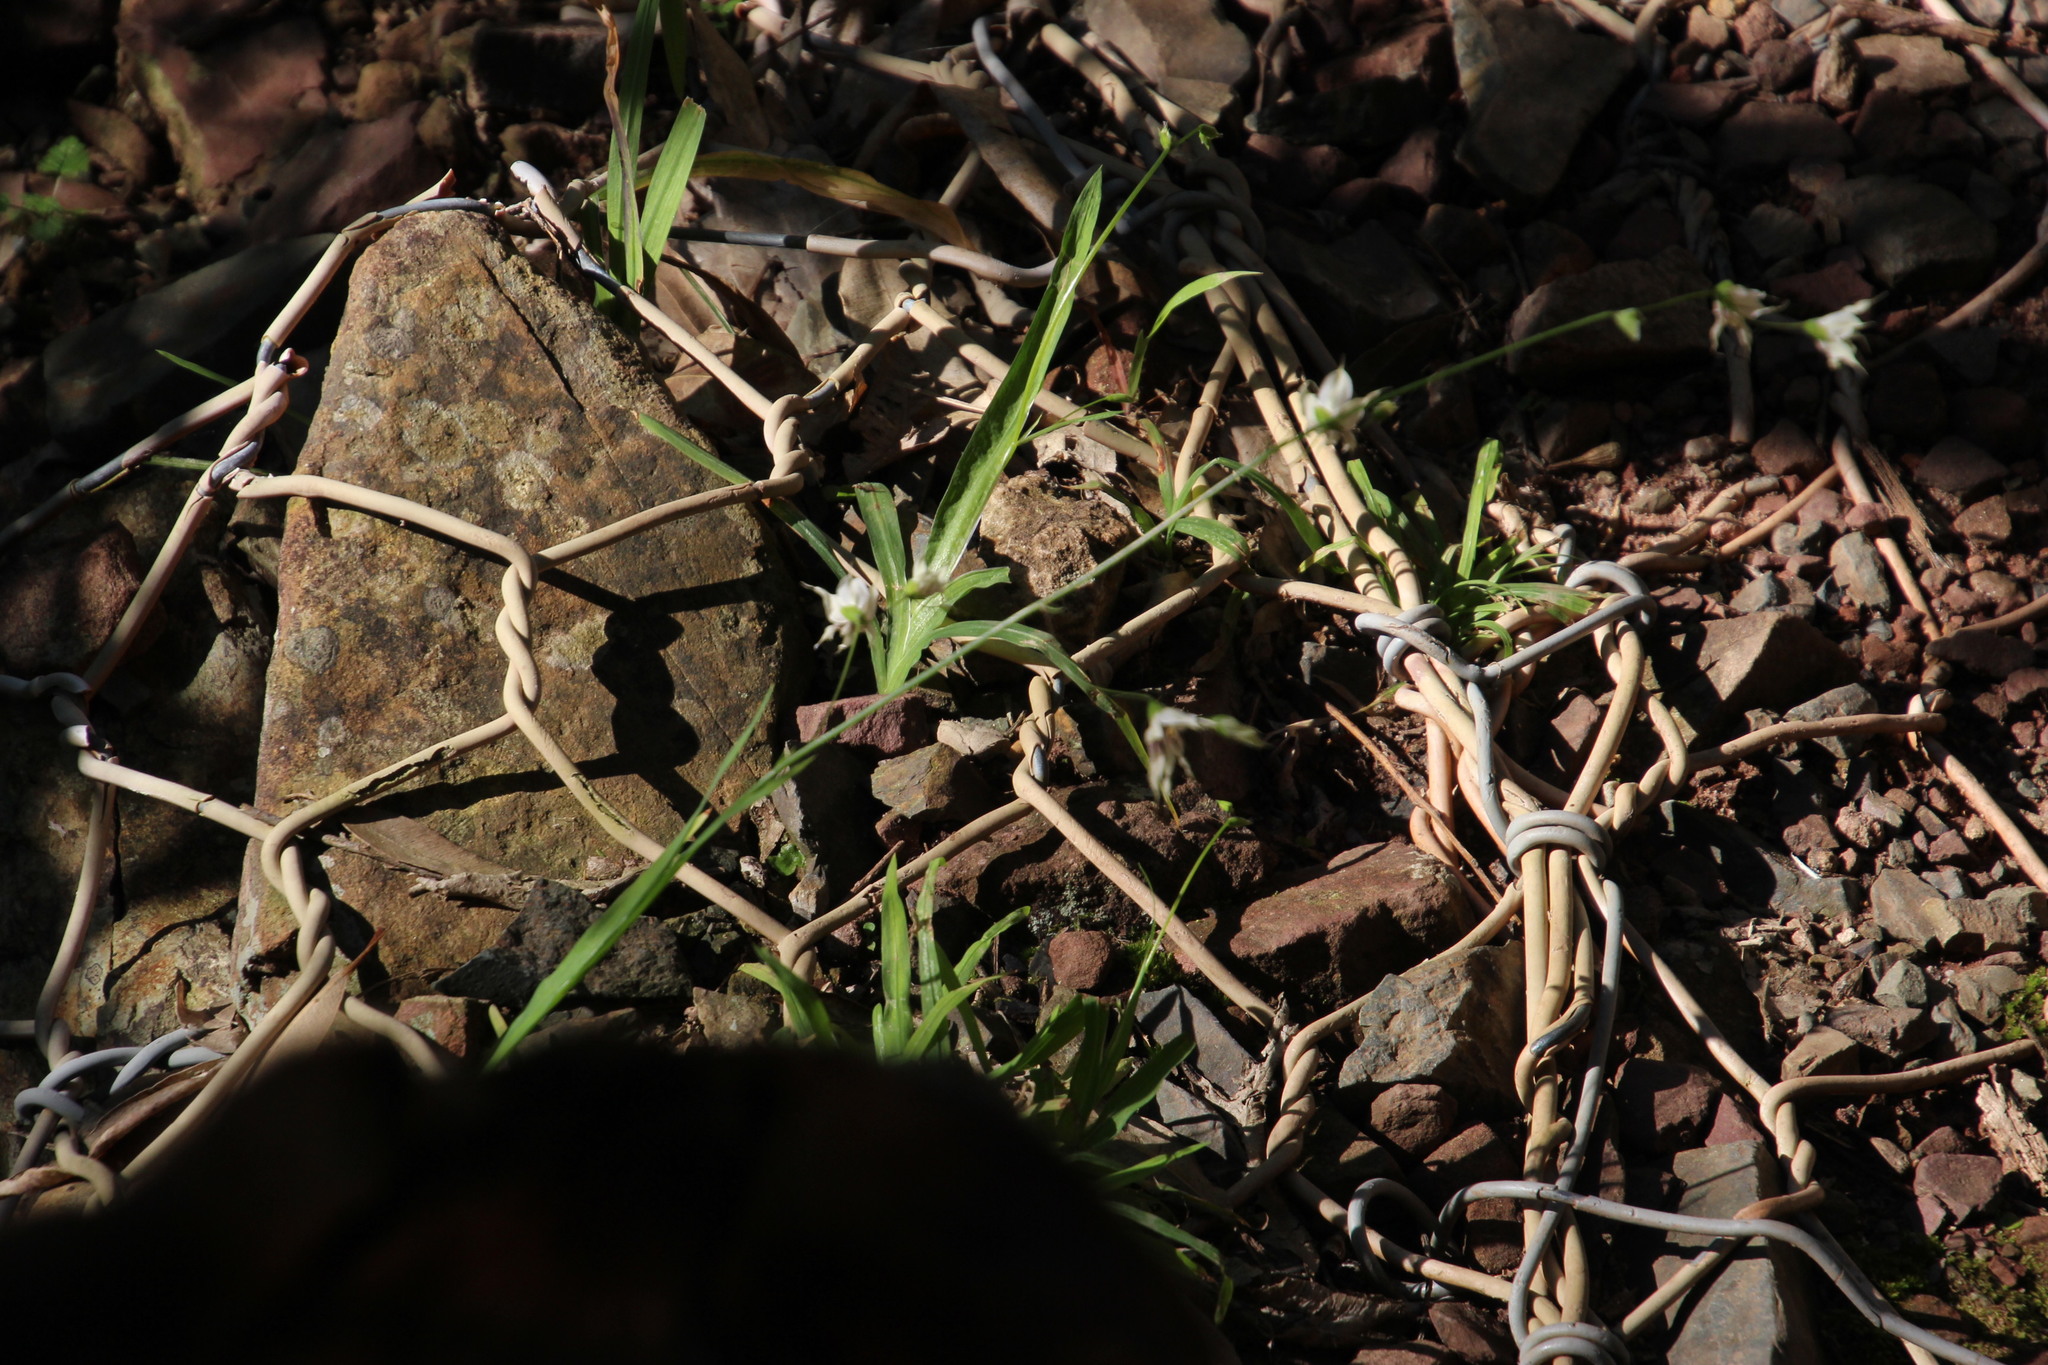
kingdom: Plantae
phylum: Tracheophyta
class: Liliopsida
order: Asparagales
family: Iridaceae
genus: Melasphaerula
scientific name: Melasphaerula graminea
